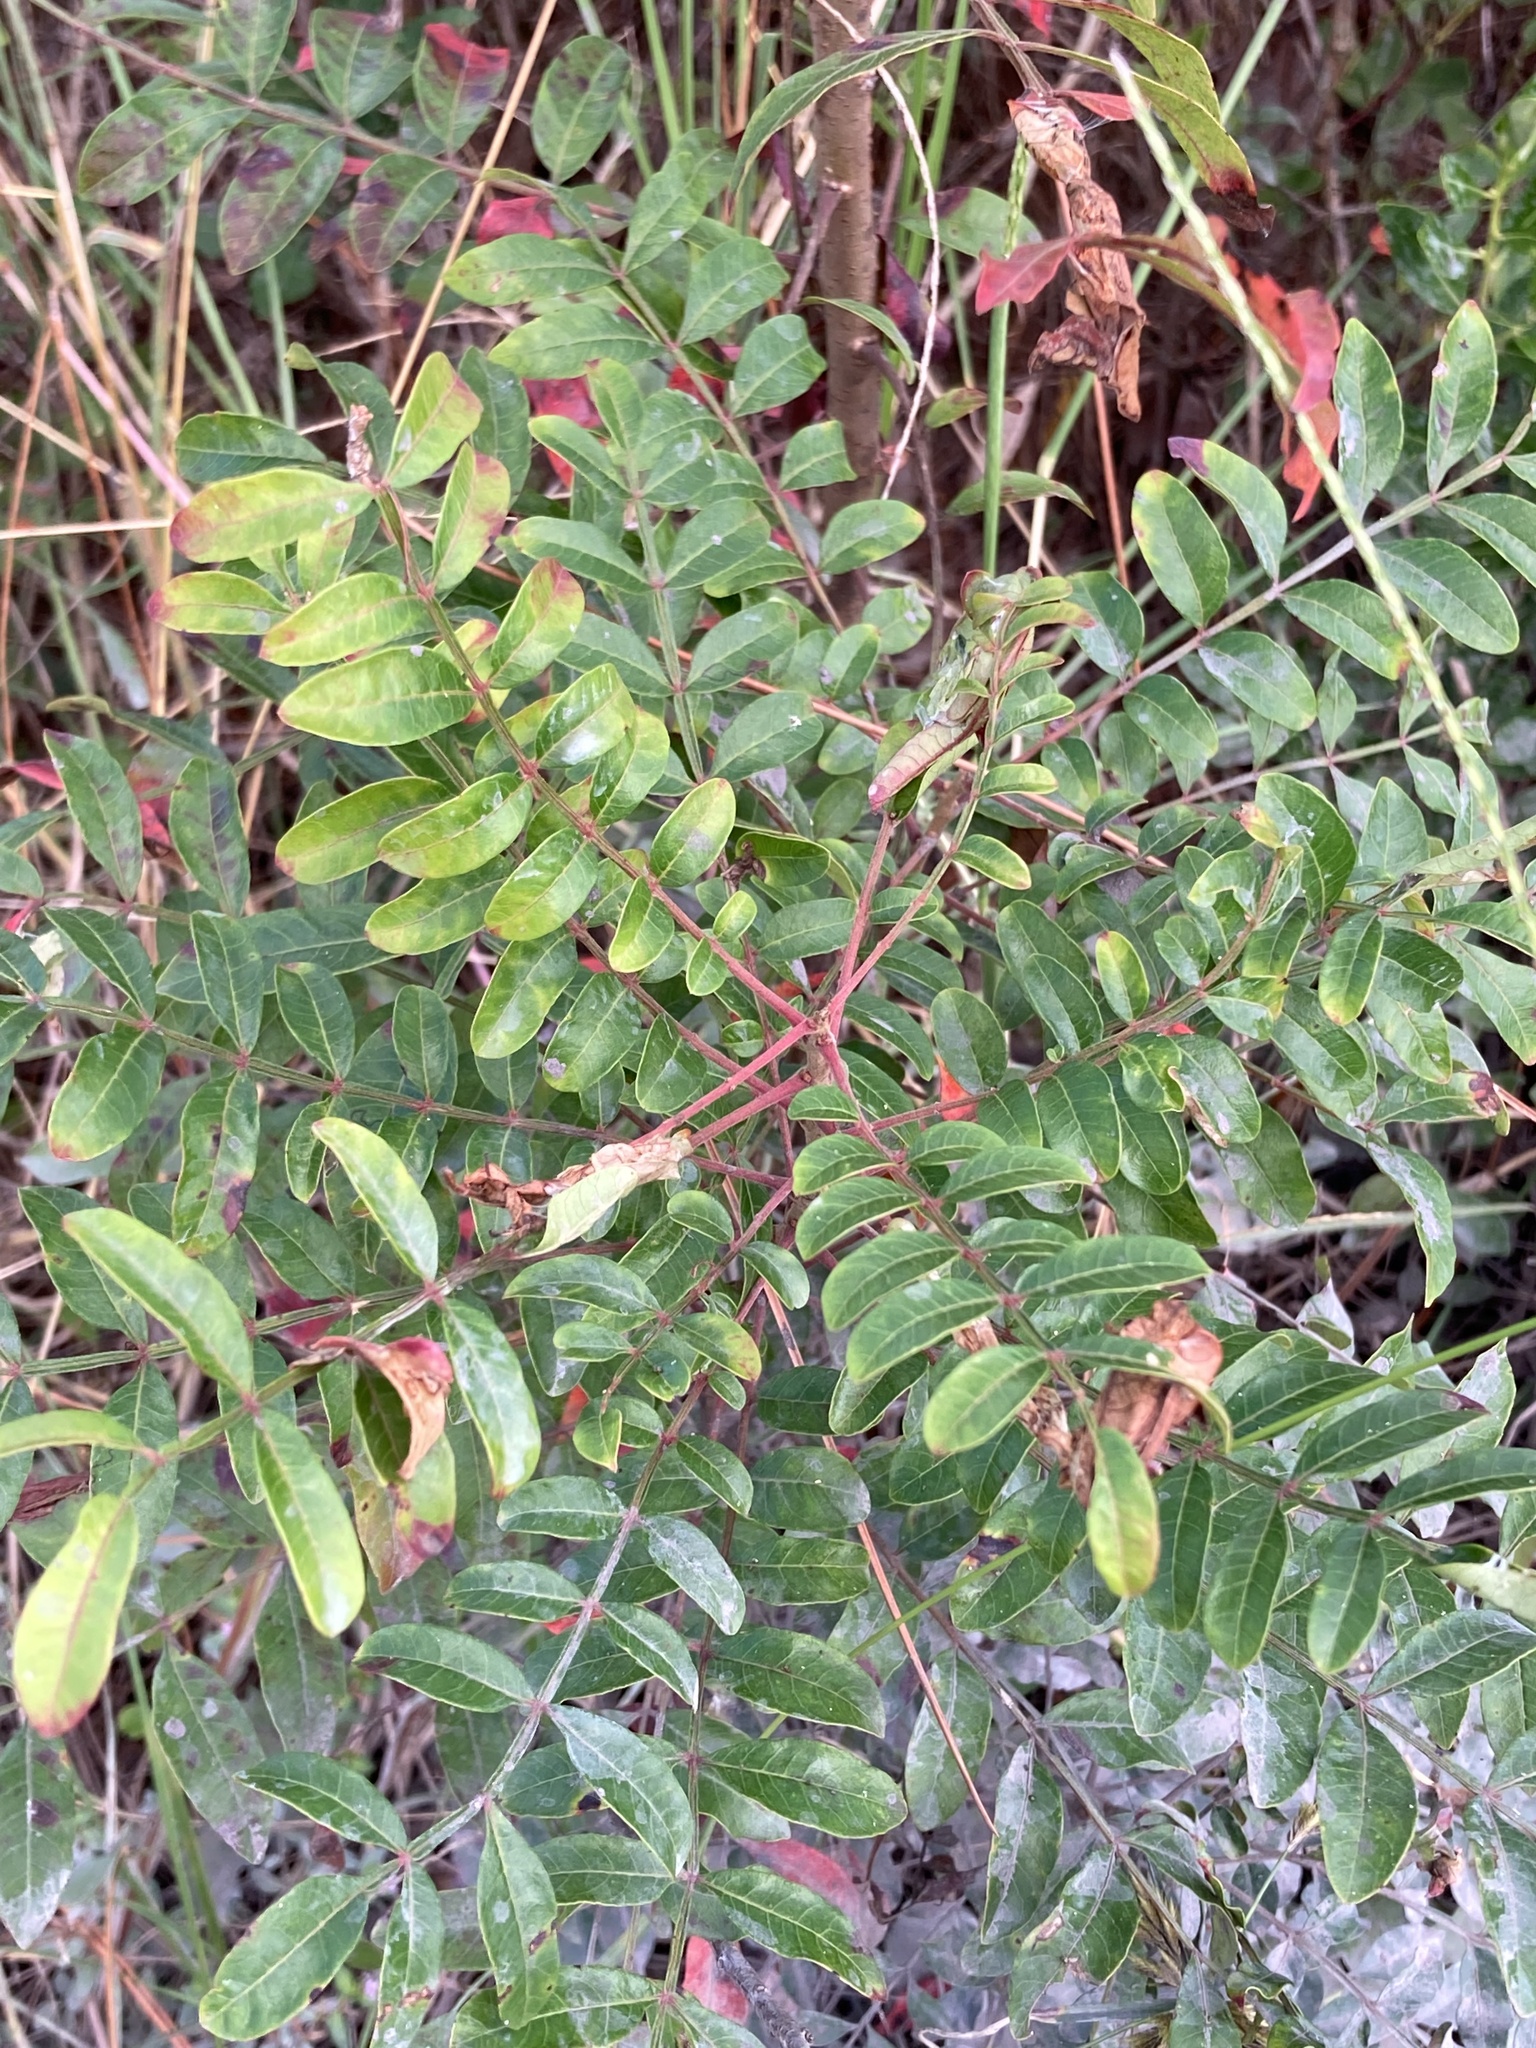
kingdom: Plantae
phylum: Tracheophyta
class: Magnoliopsida
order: Sapindales
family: Anacardiaceae
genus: Rhus
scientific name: Rhus copallina
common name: Shining sumac
